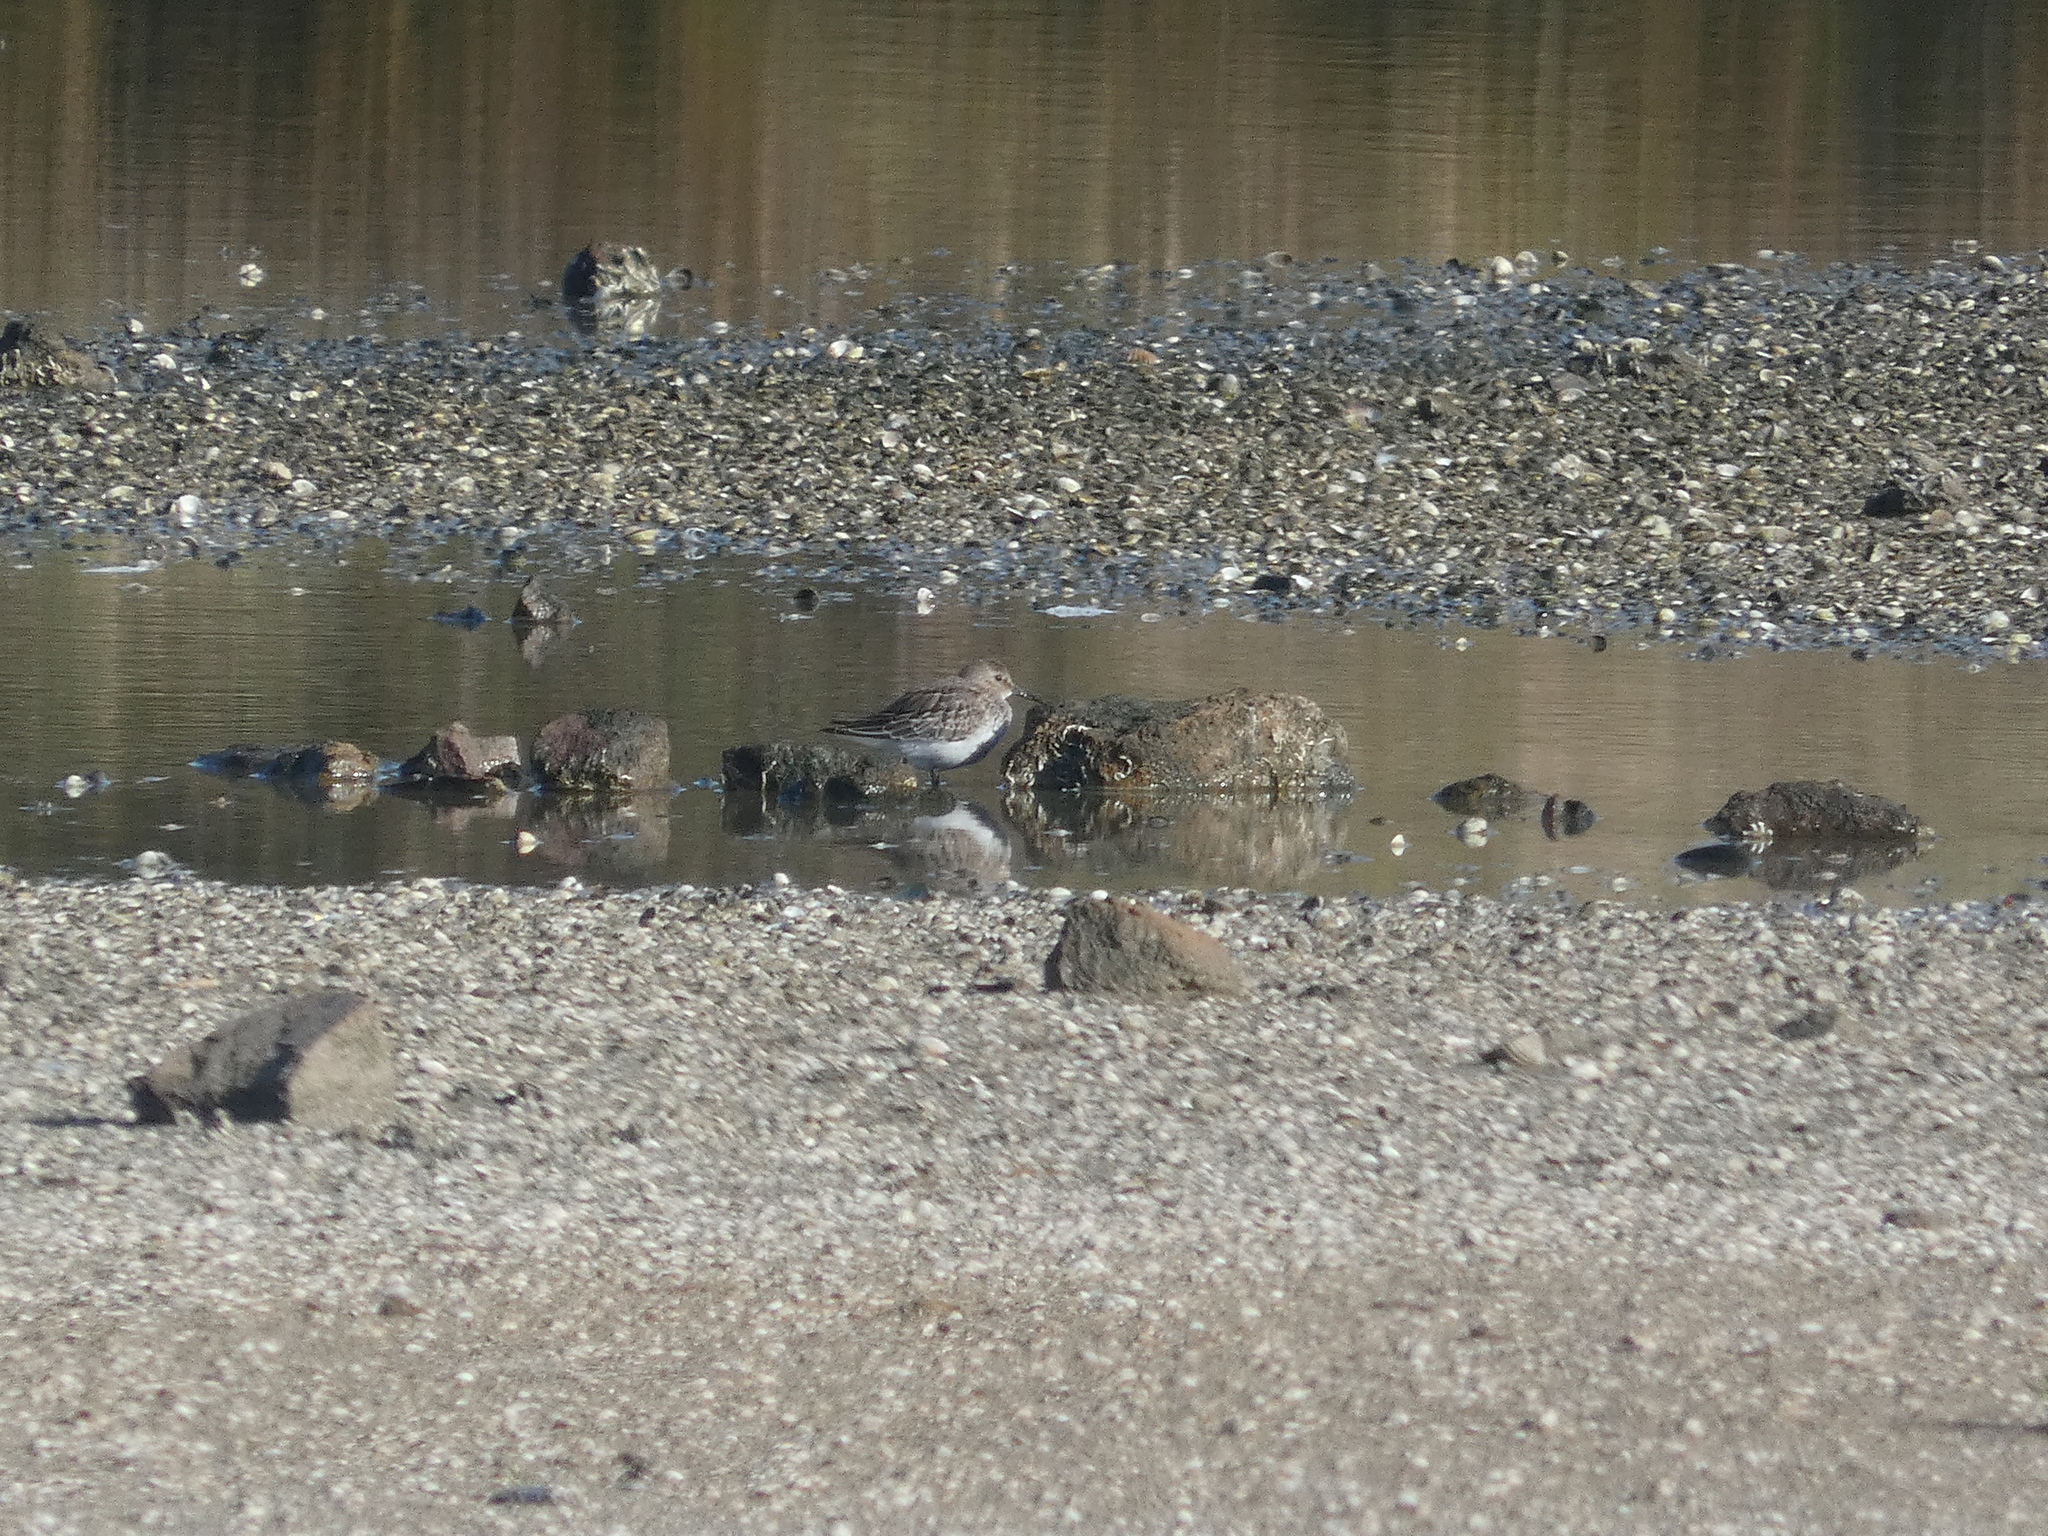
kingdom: Animalia
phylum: Chordata
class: Aves
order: Charadriiformes
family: Scolopacidae
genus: Calidris
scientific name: Calidris alpina
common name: Dunlin
